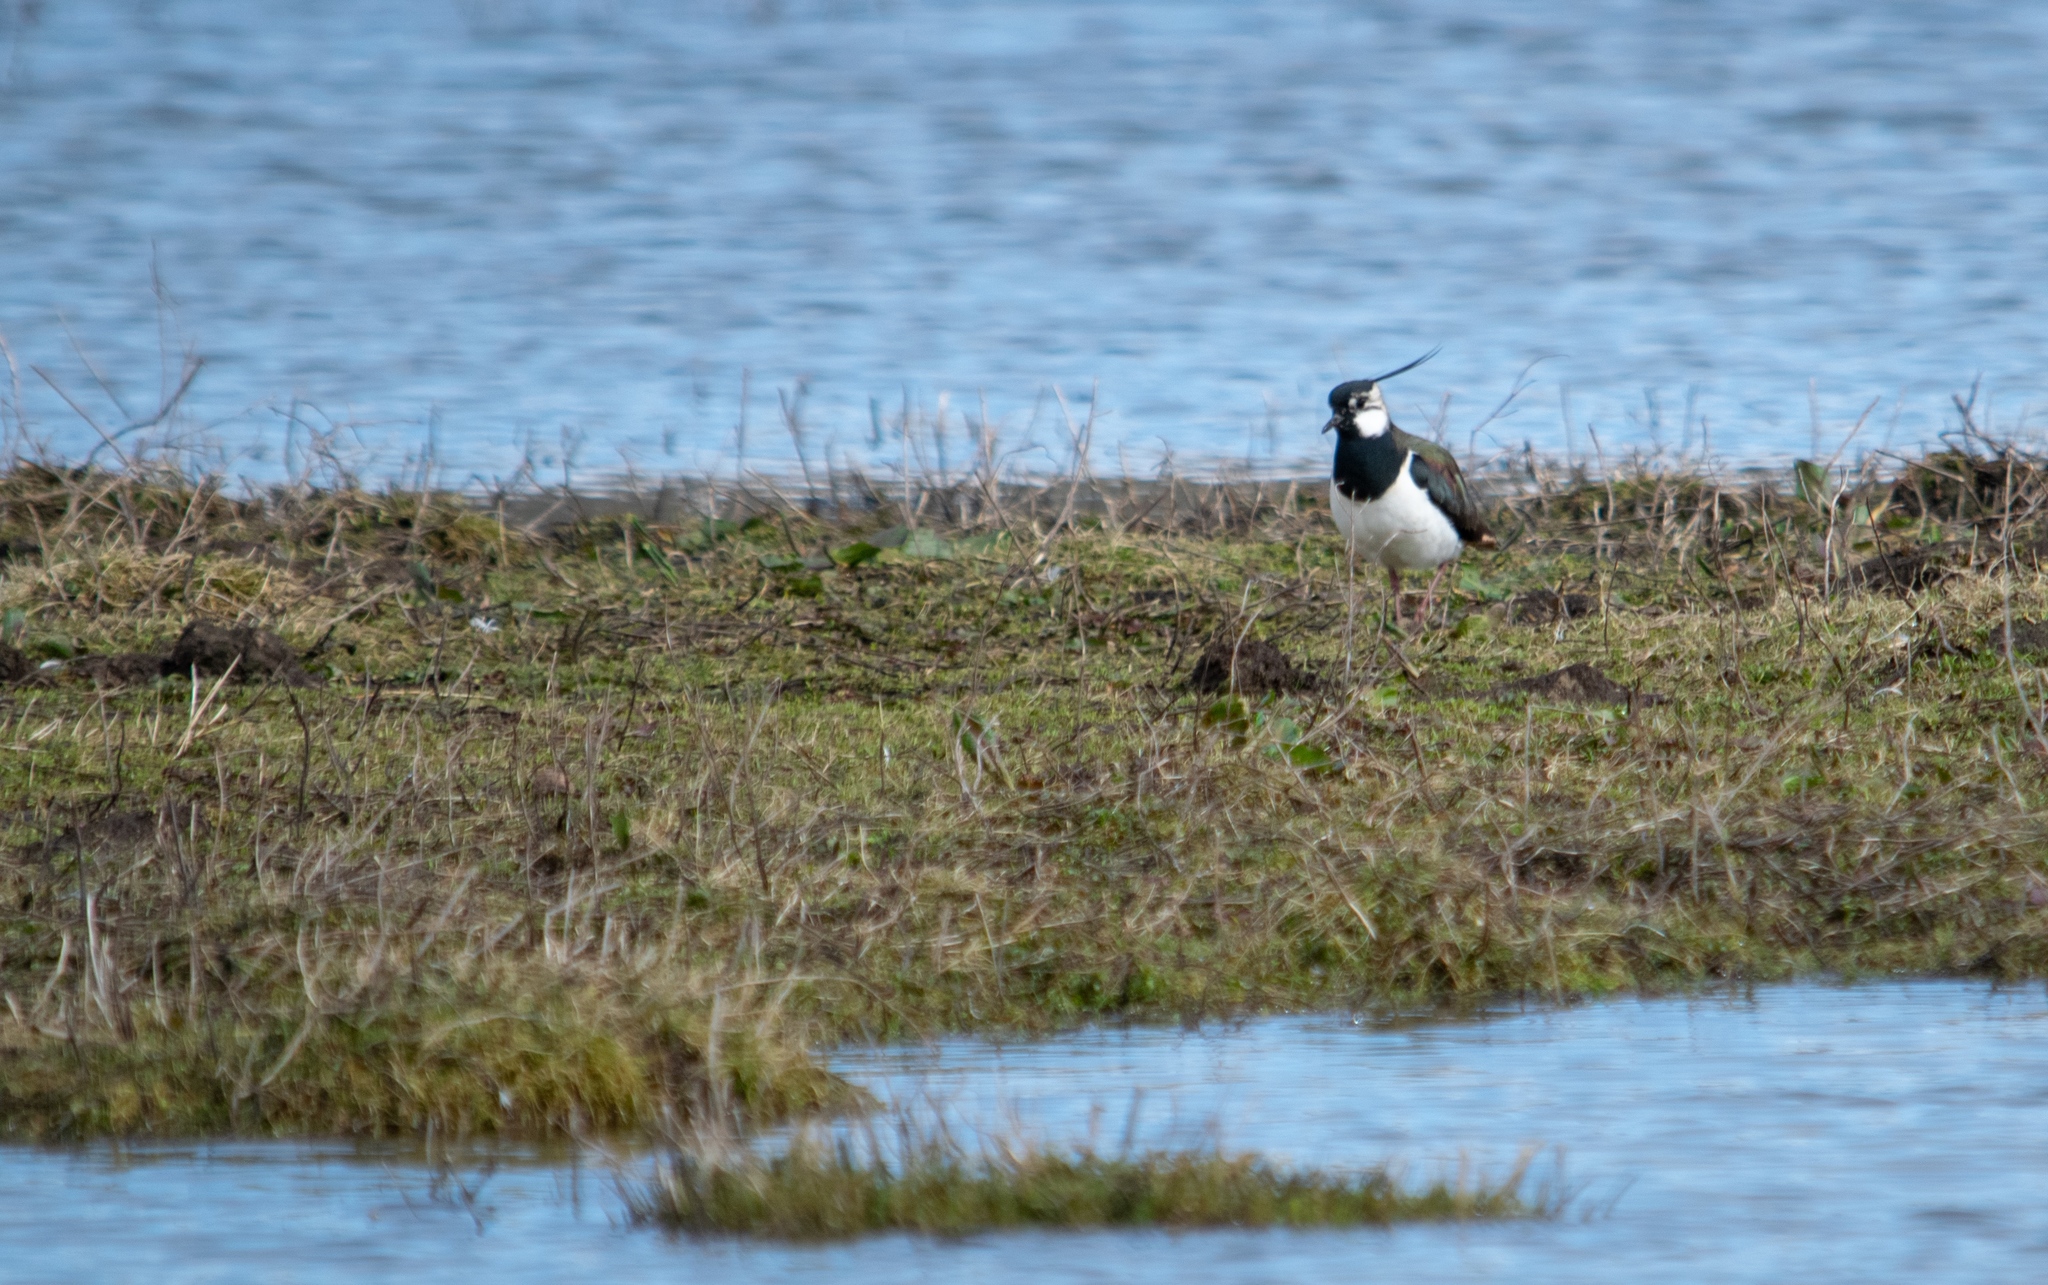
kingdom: Animalia
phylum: Chordata
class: Aves
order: Charadriiformes
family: Charadriidae
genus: Vanellus
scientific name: Vanellus vanellus
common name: Northern lapwing
